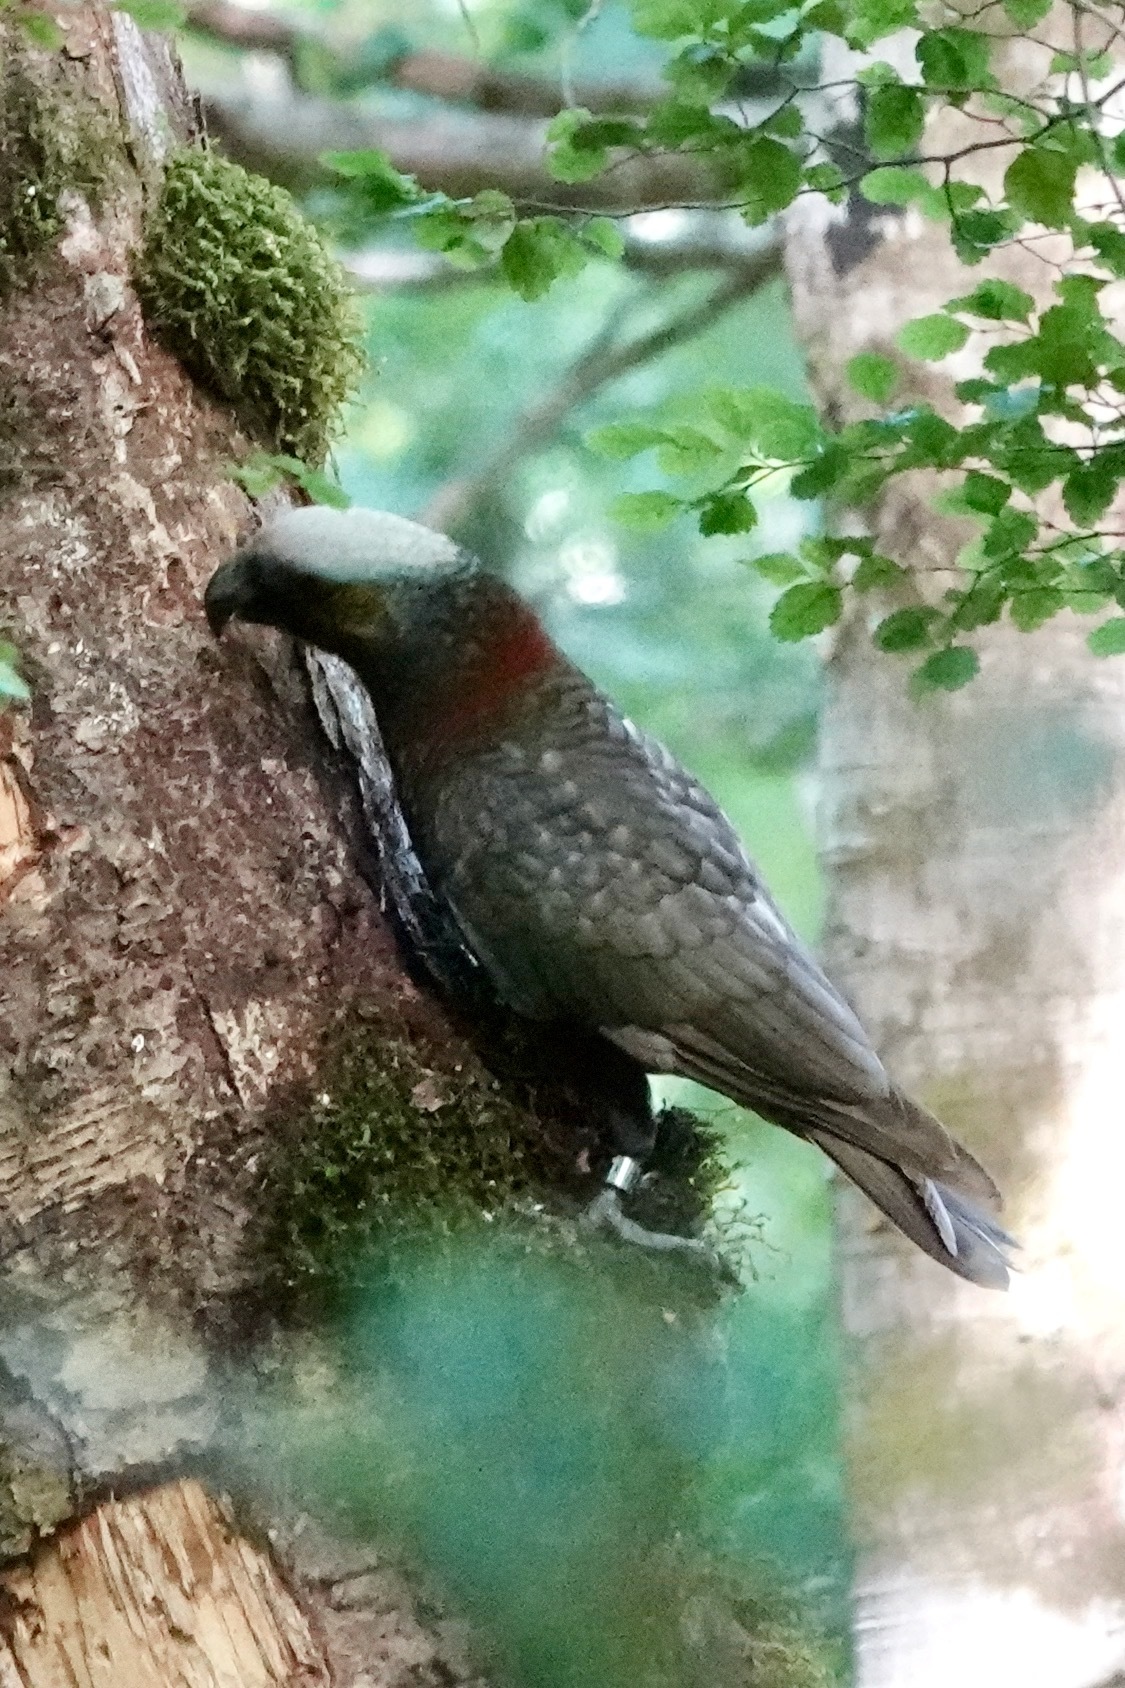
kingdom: Animalia
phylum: Chordata
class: Aves
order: Psittaciformes
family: Psittacidae
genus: Nestor
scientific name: Nestor meridionalis
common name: New zealand kaka
